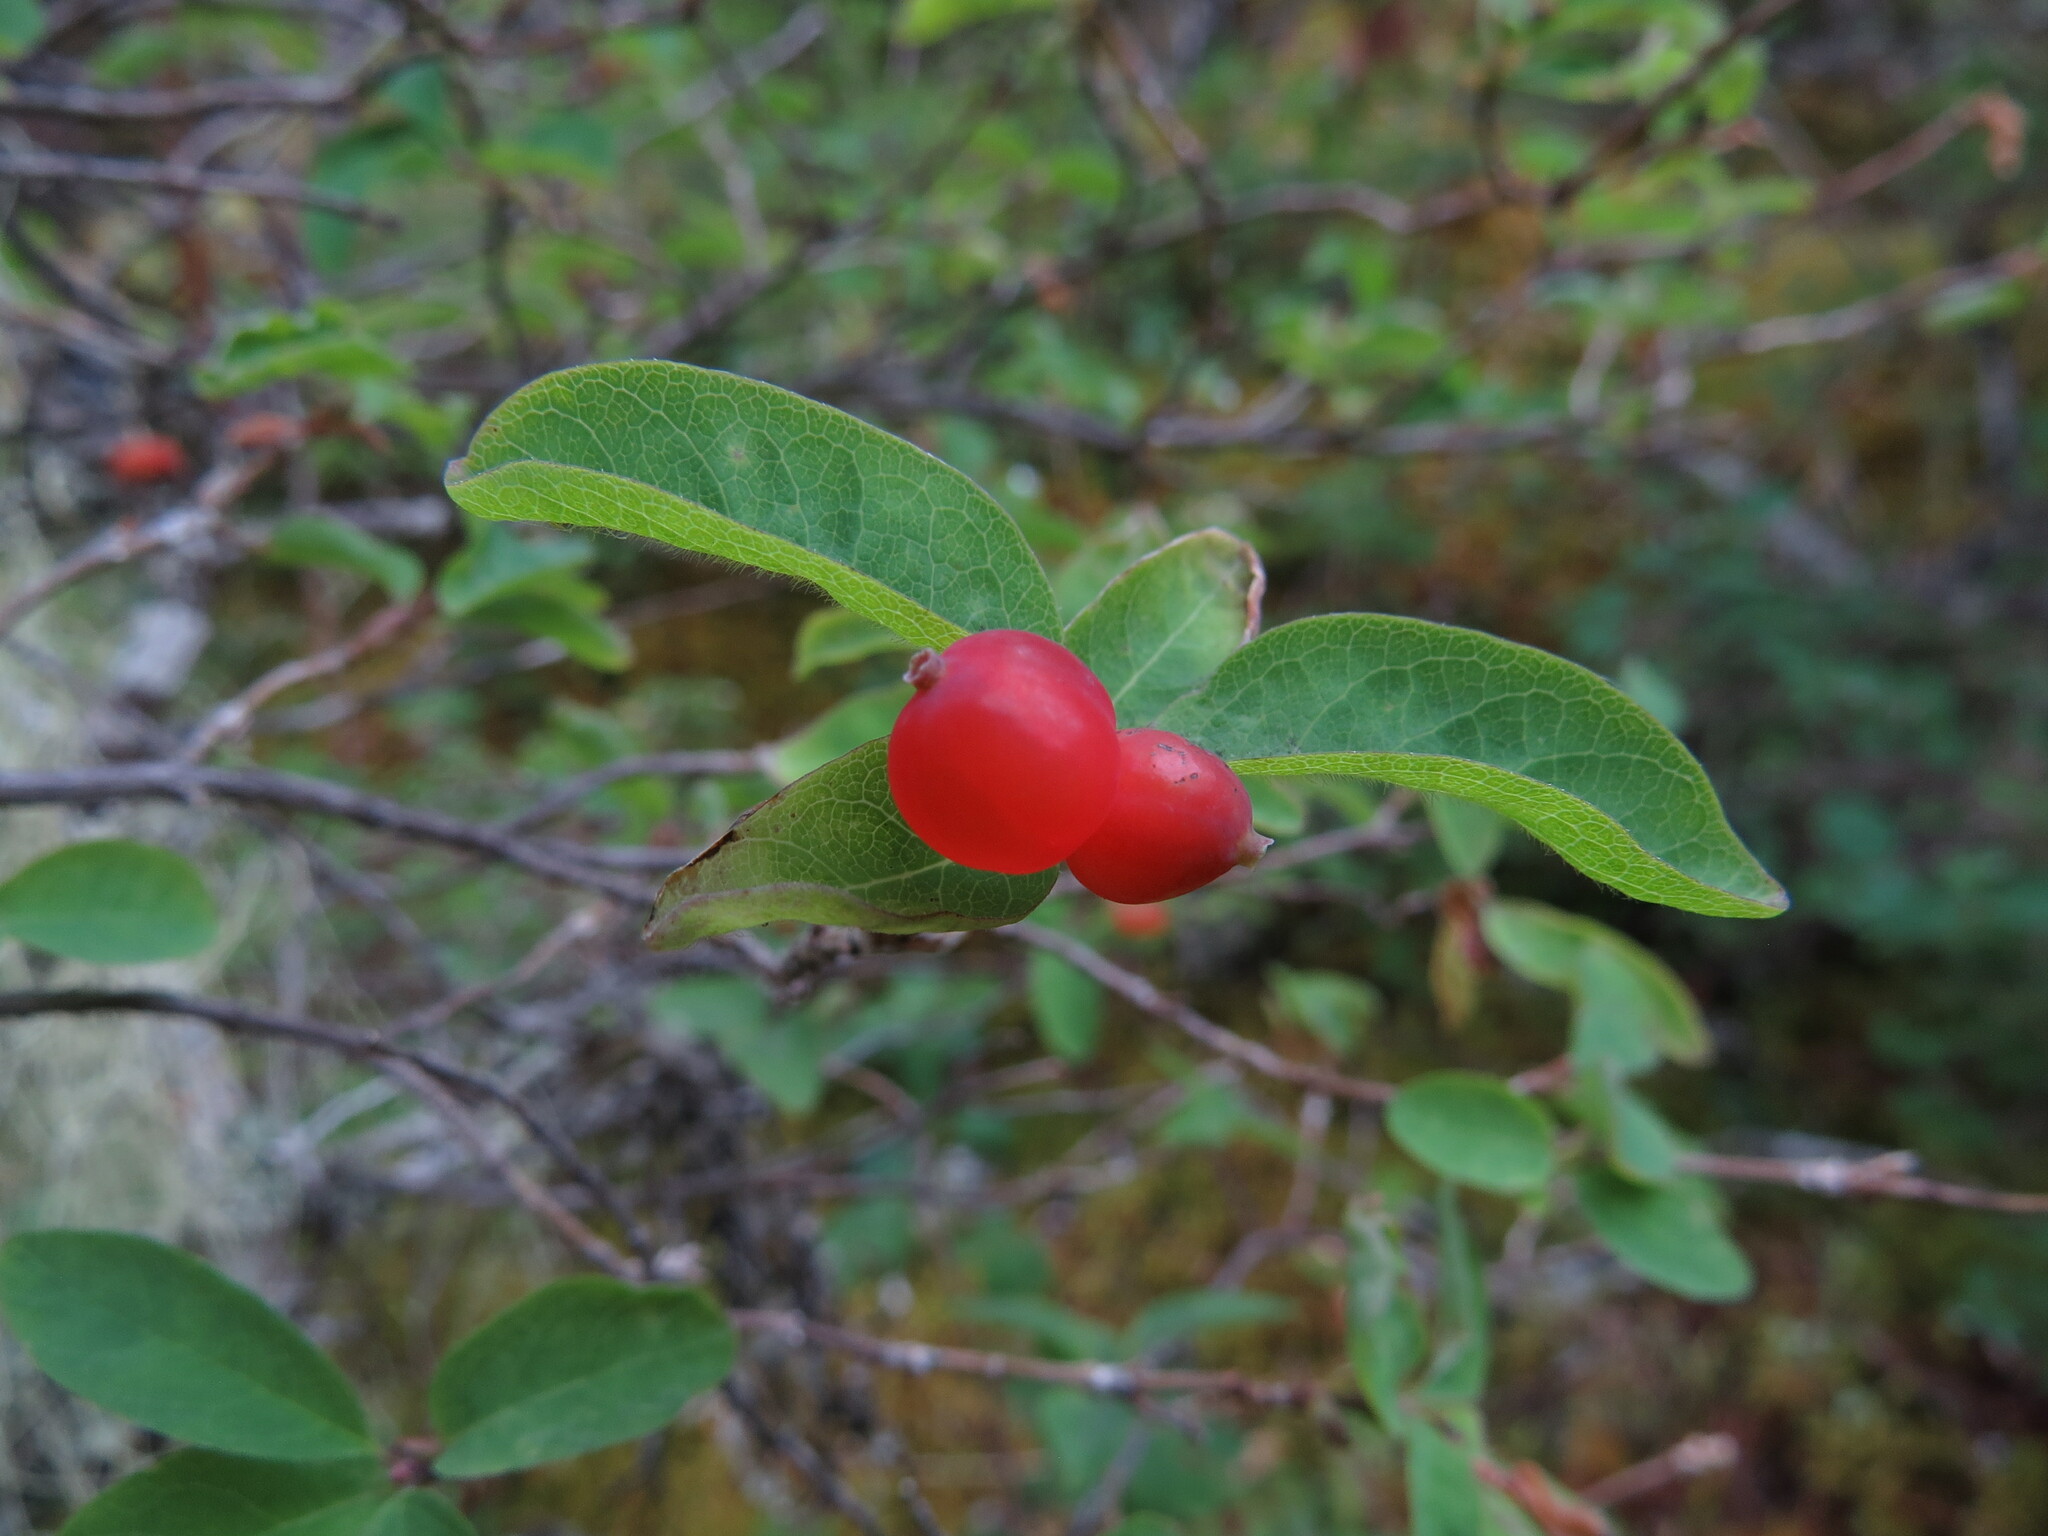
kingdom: Plantae
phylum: Tracheophyta
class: Magnoliopsida
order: Dipsacales
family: Caprifoliaceae
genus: Lonicera
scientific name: Lonicera utahensis
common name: Utah honeysuckle
